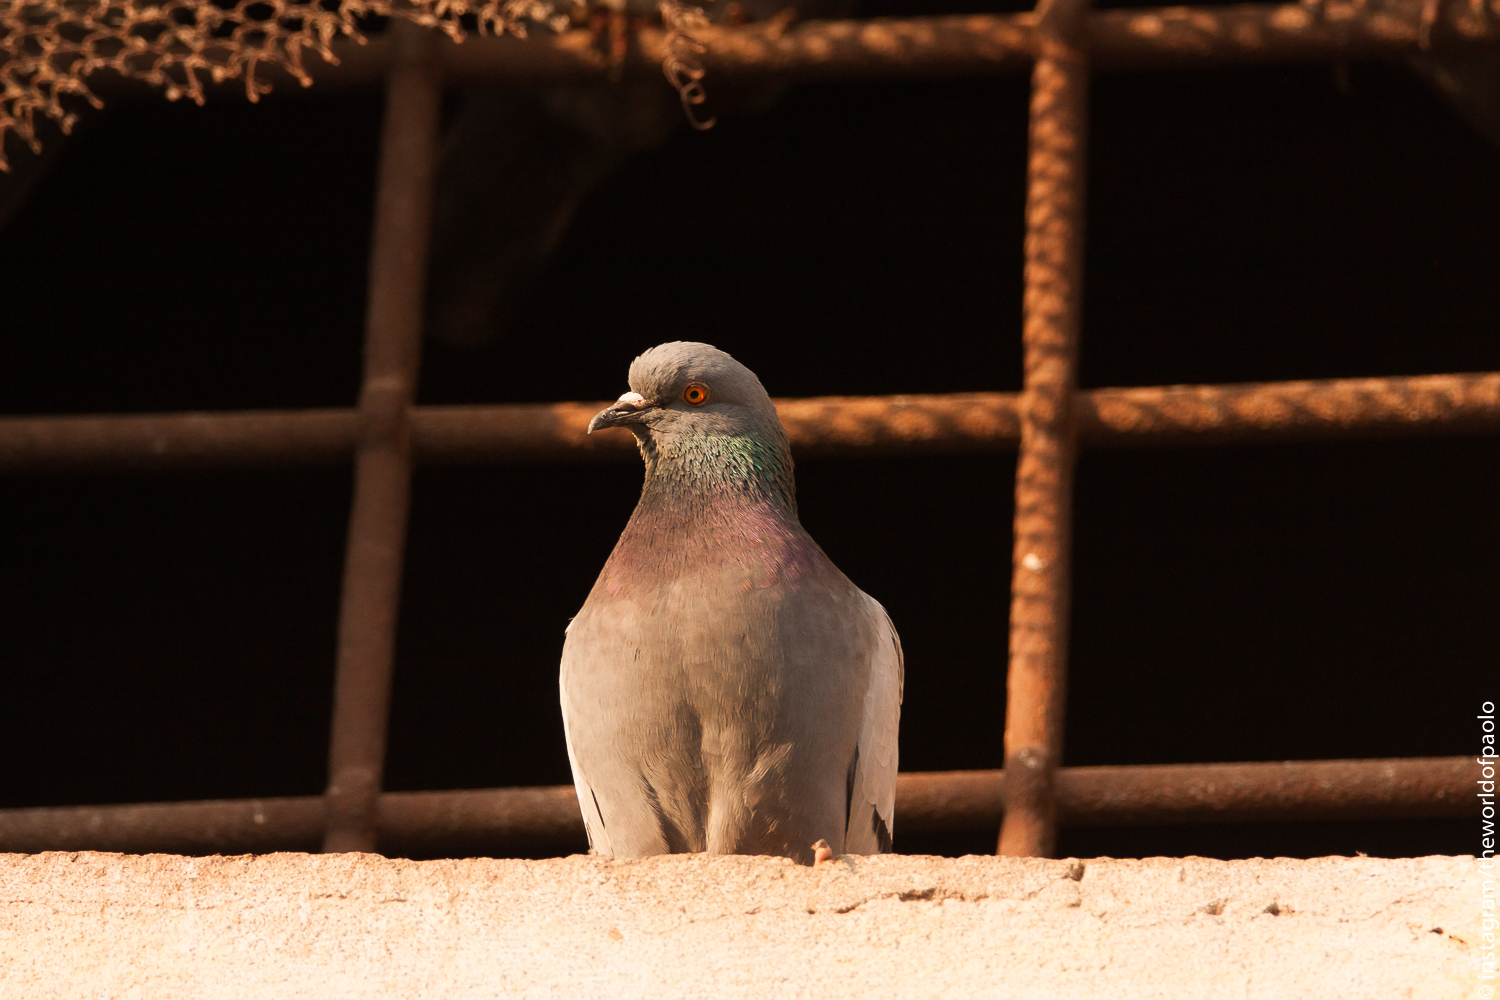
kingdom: Animalia
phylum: Chordata
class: Aves
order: Columbiformes
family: Columbidae
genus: Columba
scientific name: Columba livia
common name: Rock pigeon
